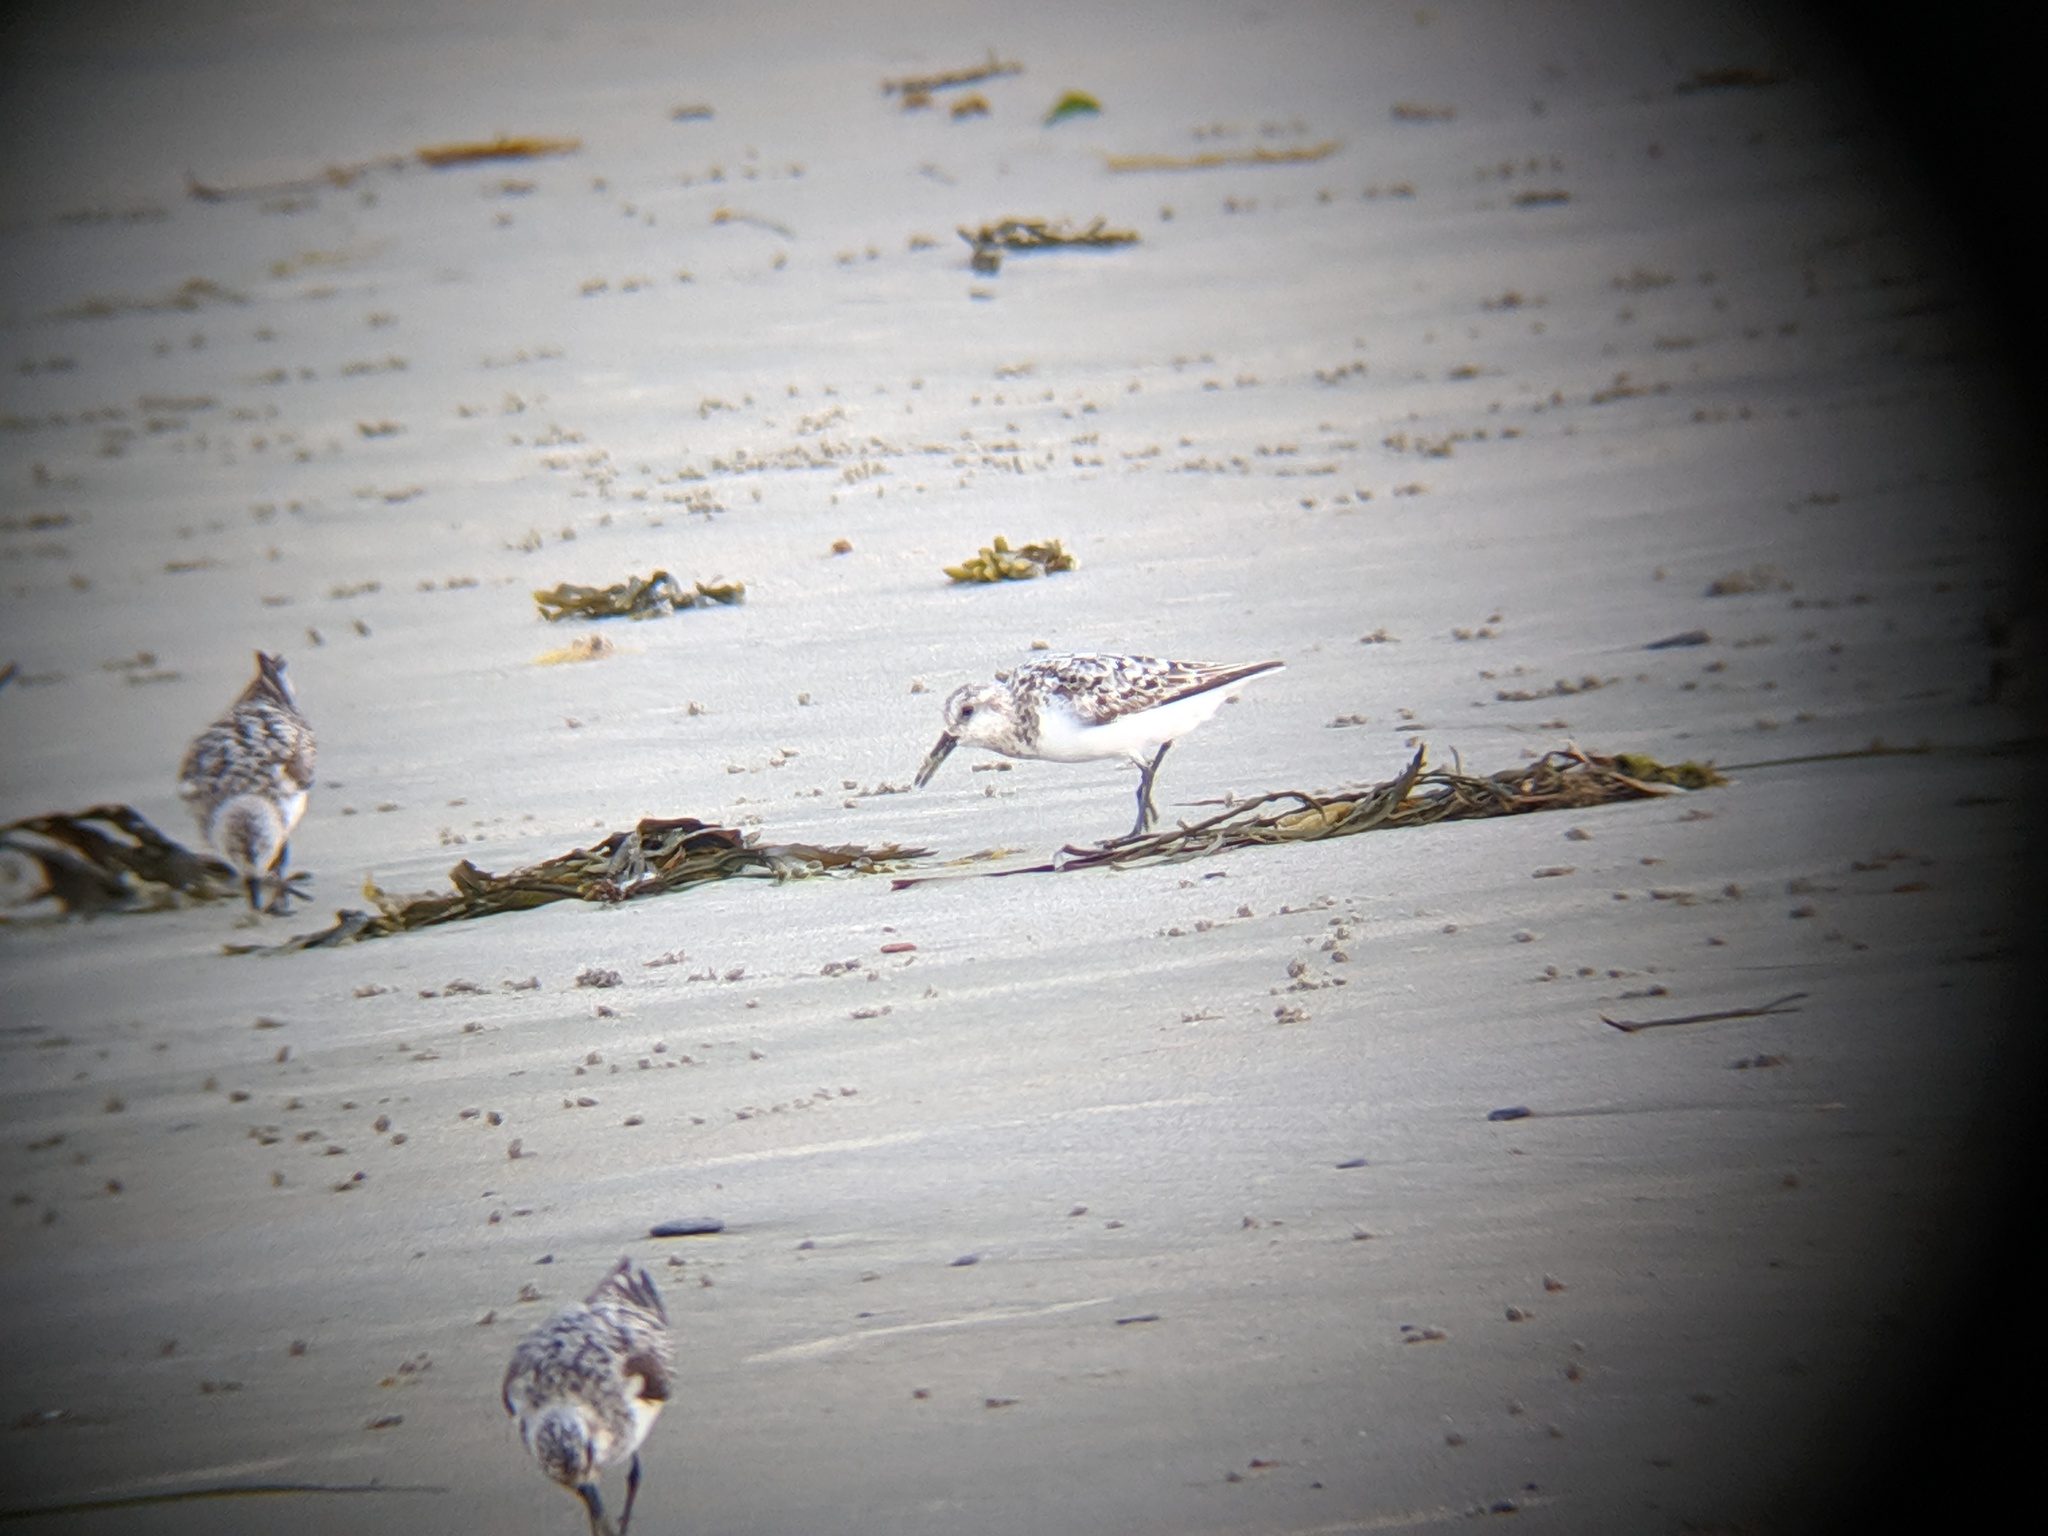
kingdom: Animalia
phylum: Chordata
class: Aves
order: Charadriiformes
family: Scolopacidae
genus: Calidris
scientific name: Calidris alba
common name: Sanderling
